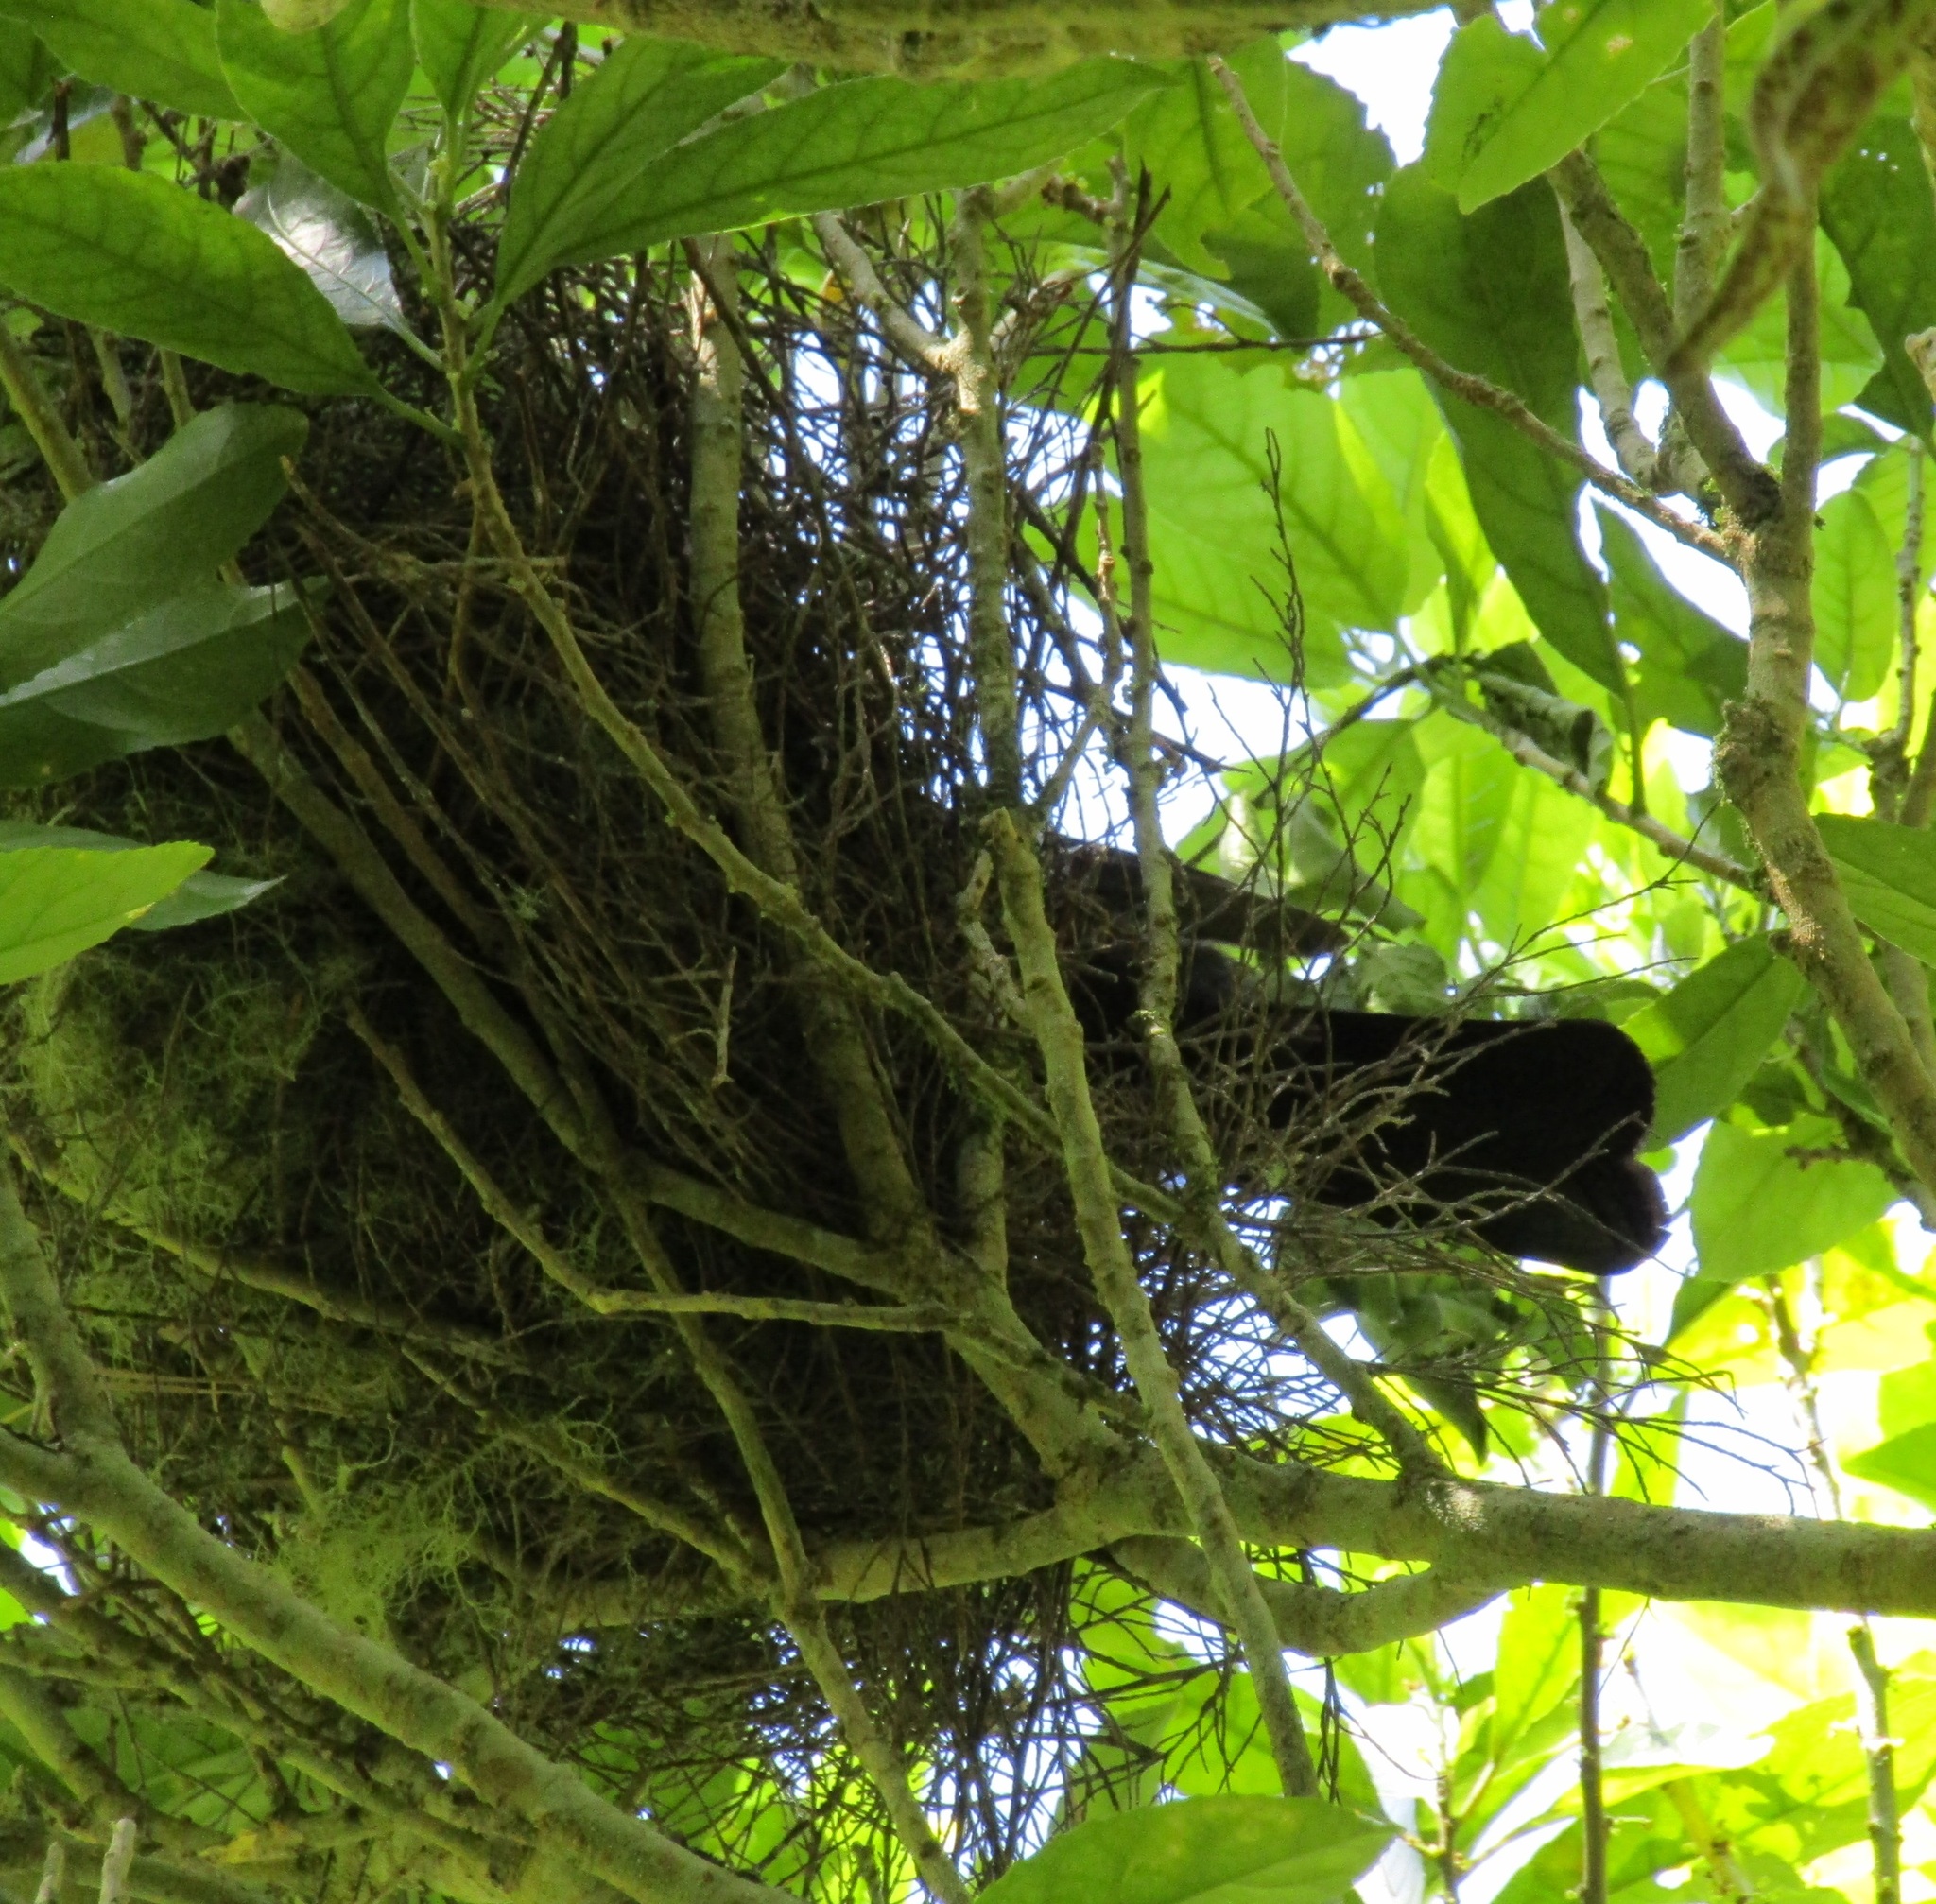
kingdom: Animalia
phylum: Chordata
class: Aves
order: Columbiformes
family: Columbidae
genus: Hemiphaga
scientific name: Hemiphaga novaeseelandiae
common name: New zealand pigeon
